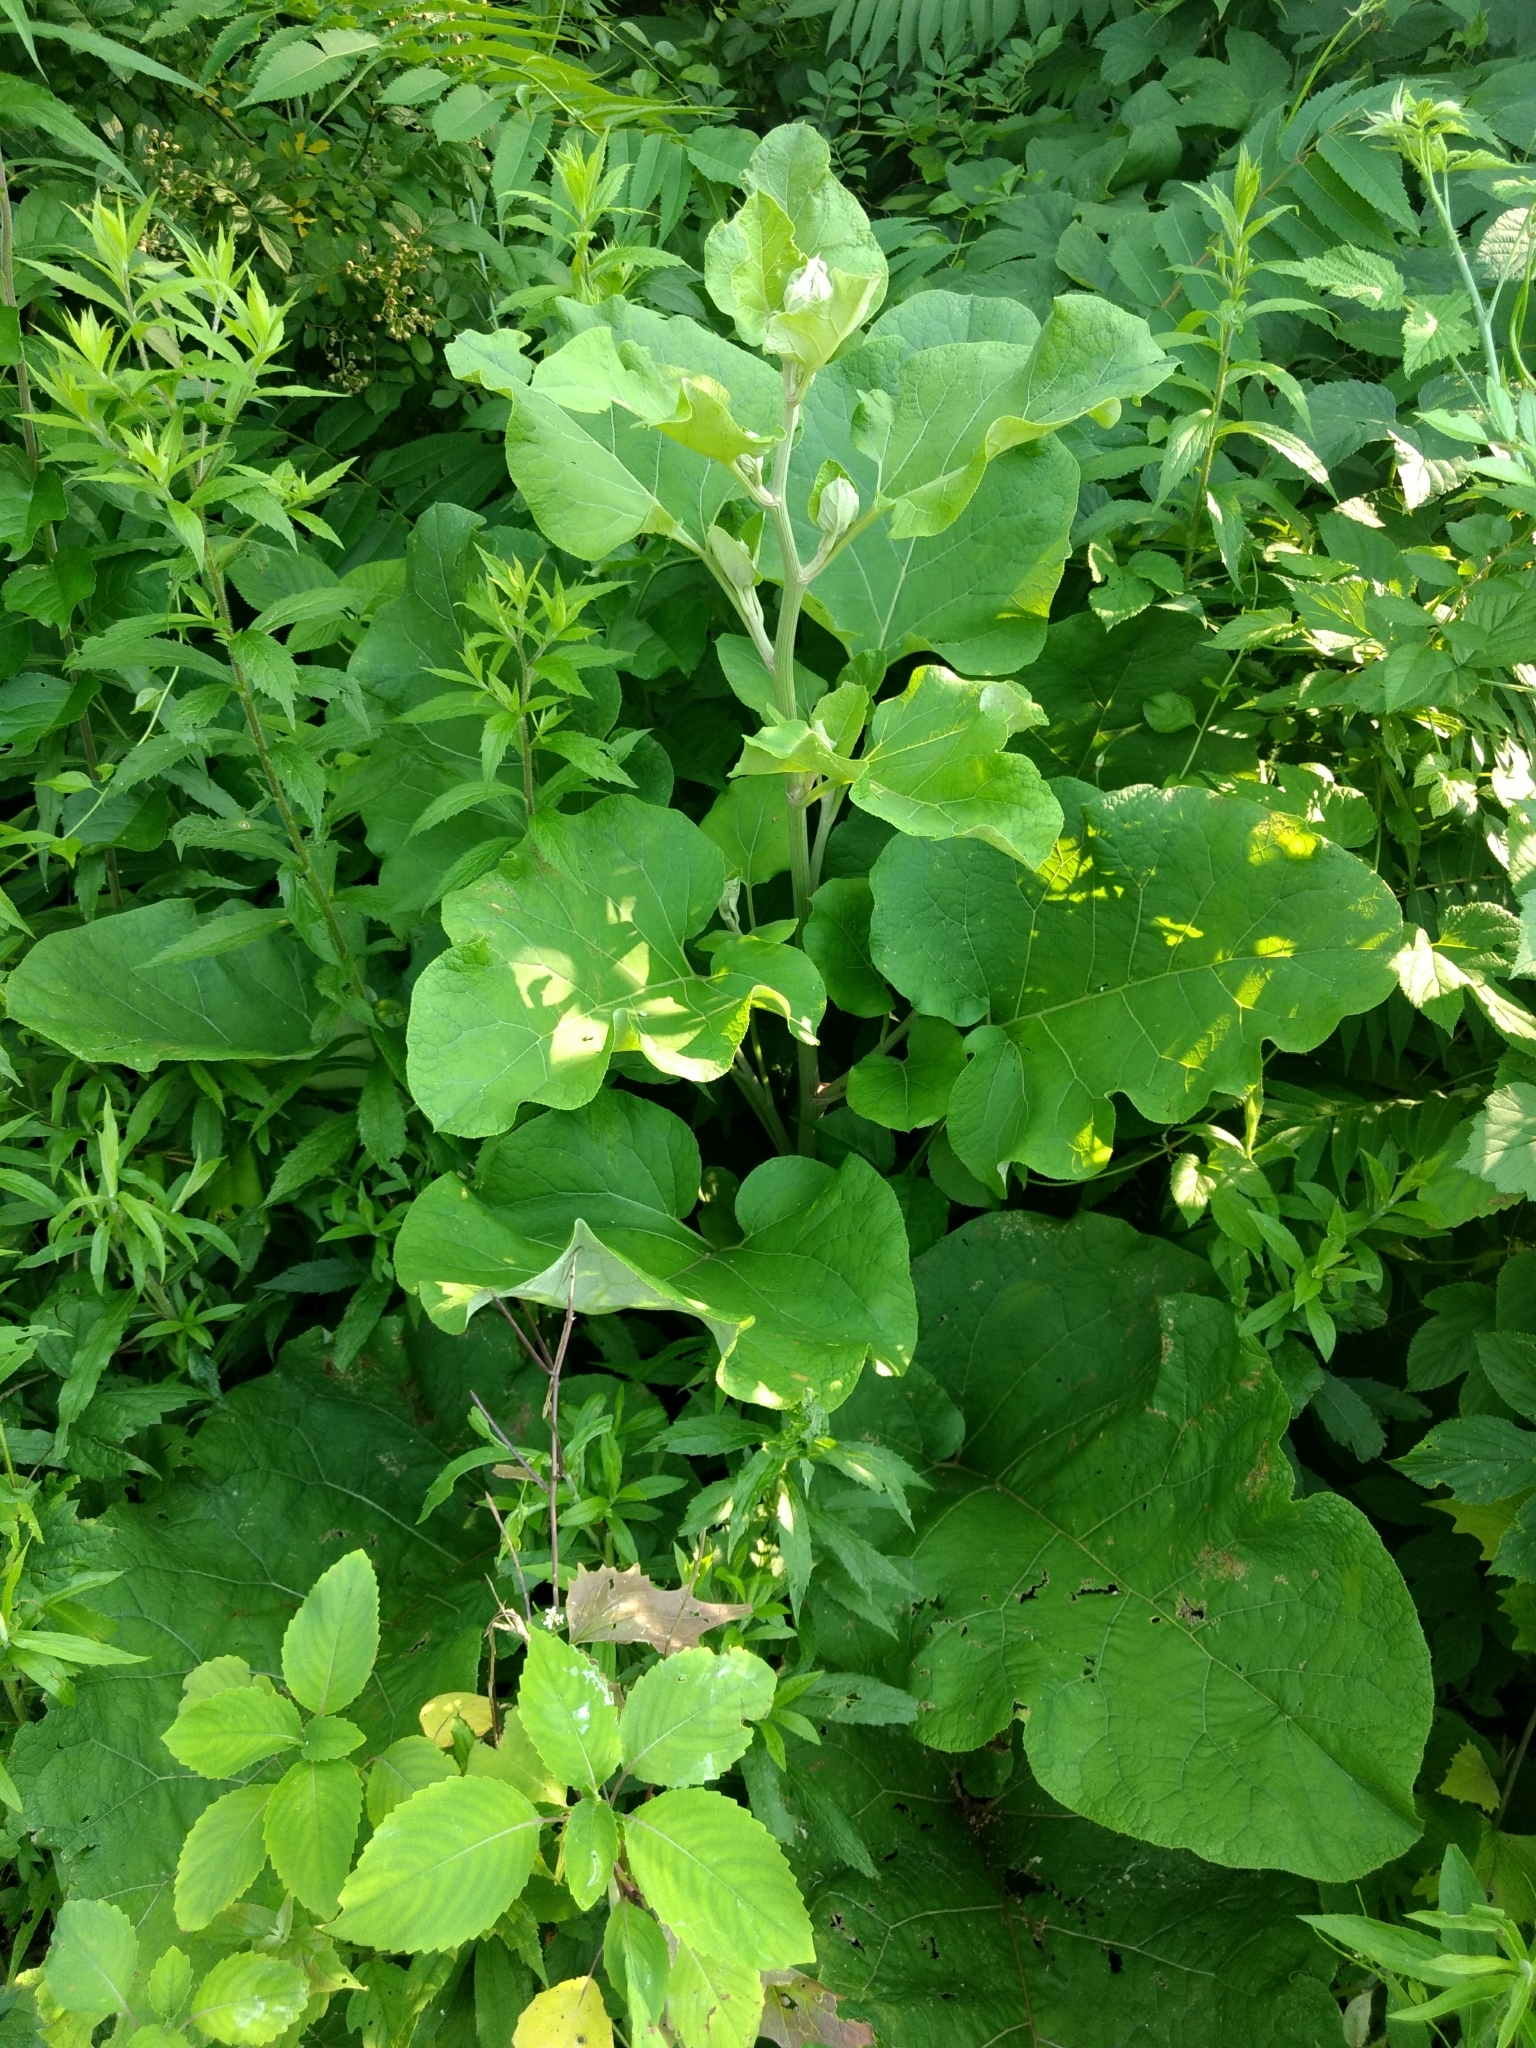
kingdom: Plantae
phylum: Tracheophyta
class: Magnoliopsida
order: Asterales
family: Asteraceae
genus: Arctium
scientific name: Arctium
